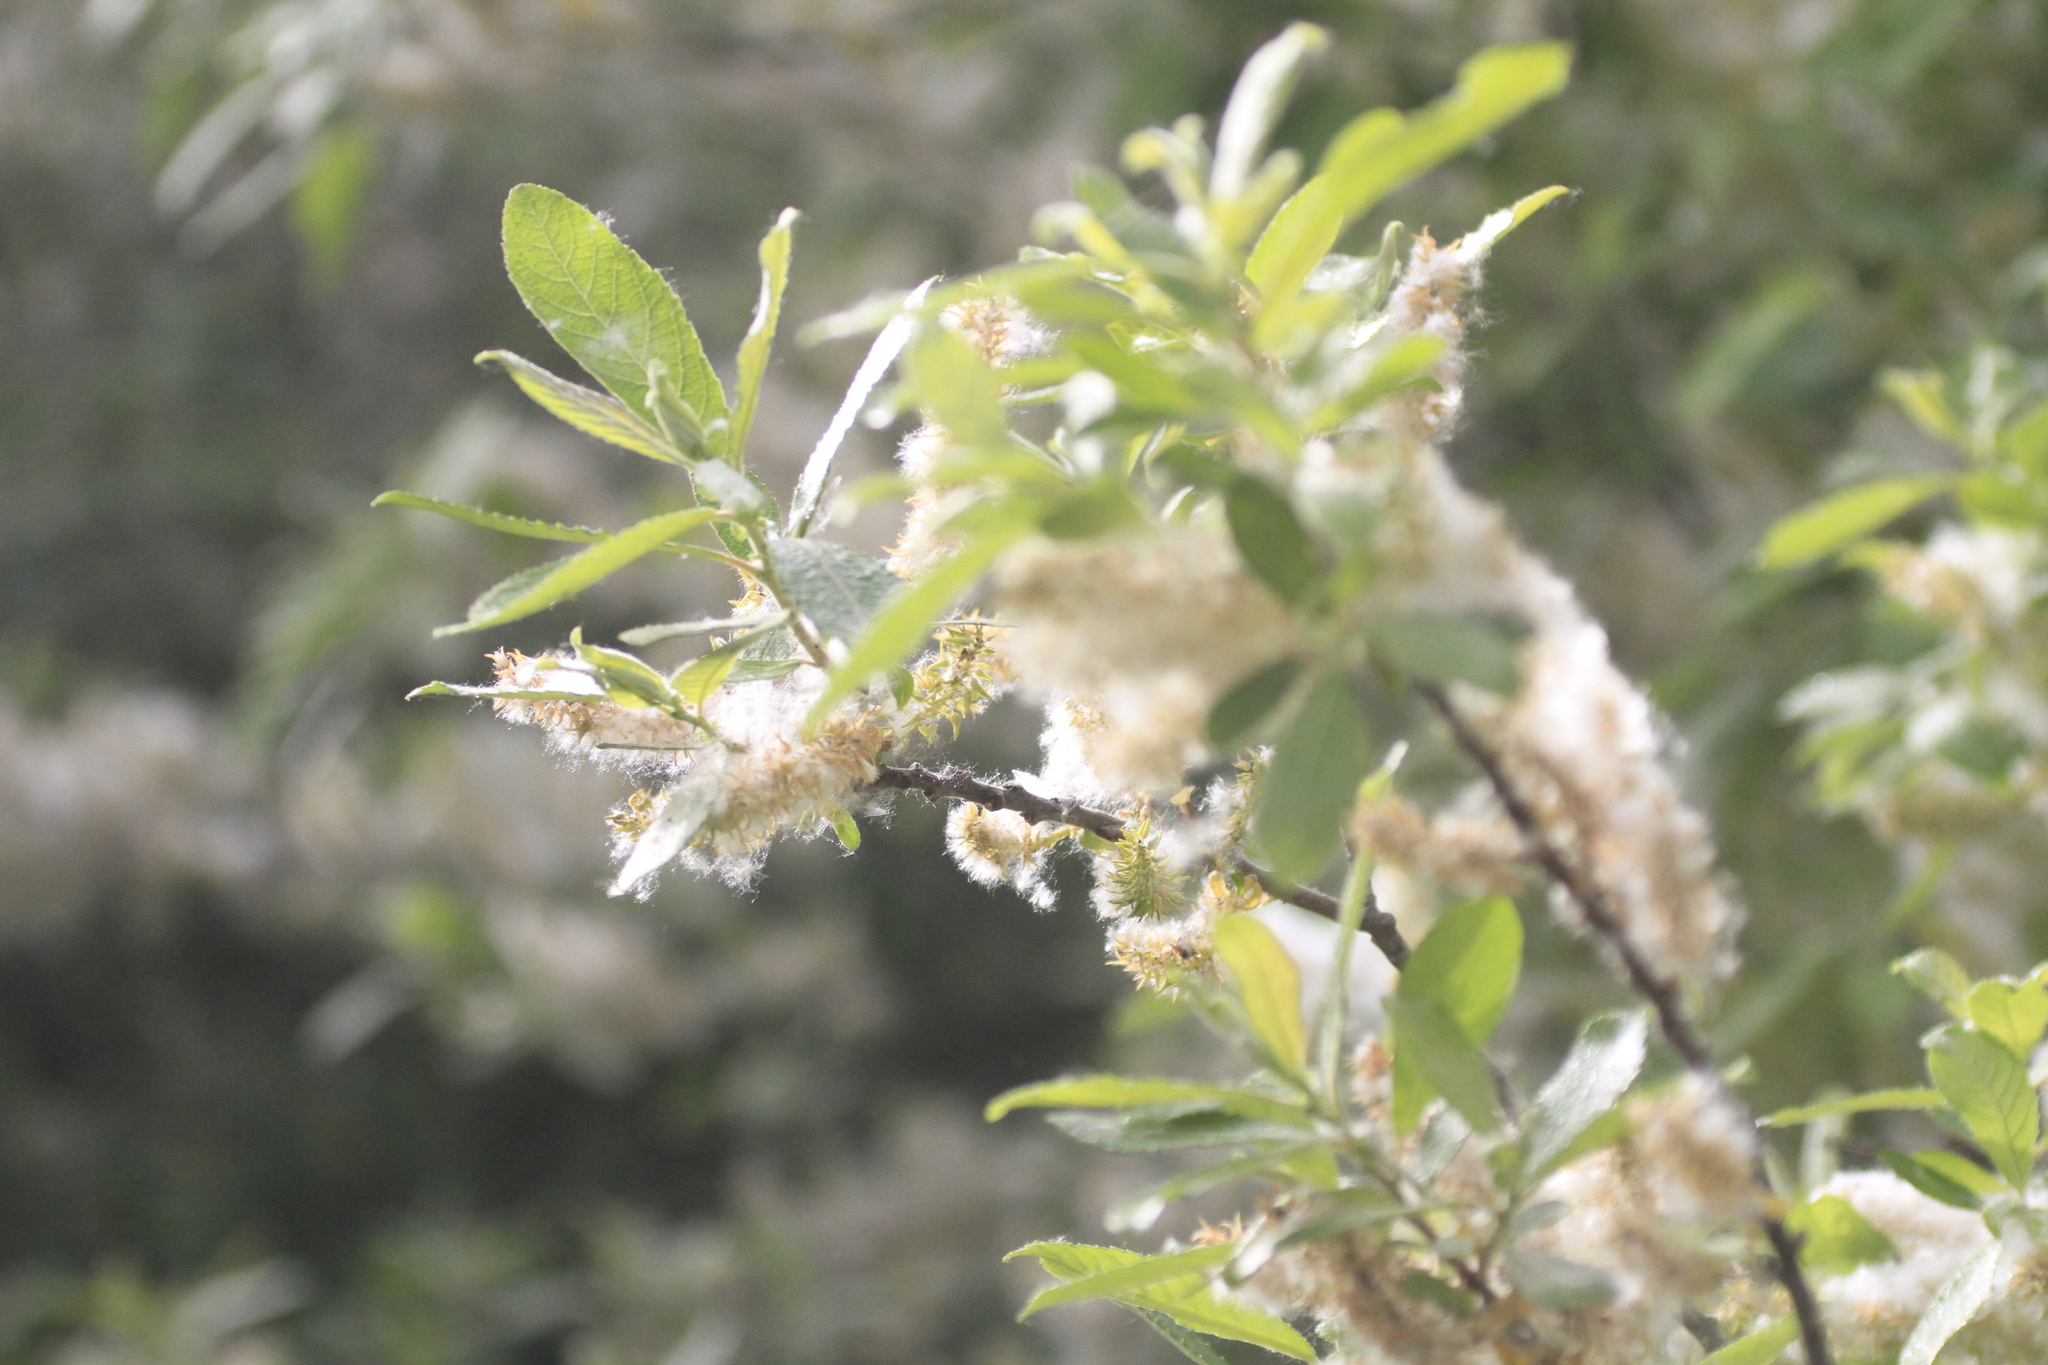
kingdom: Plantae
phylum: Tracheophyta
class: Magnoliopsida
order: Malpighiales
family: Salicaceae
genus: Salix
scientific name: Salix pedicellata
